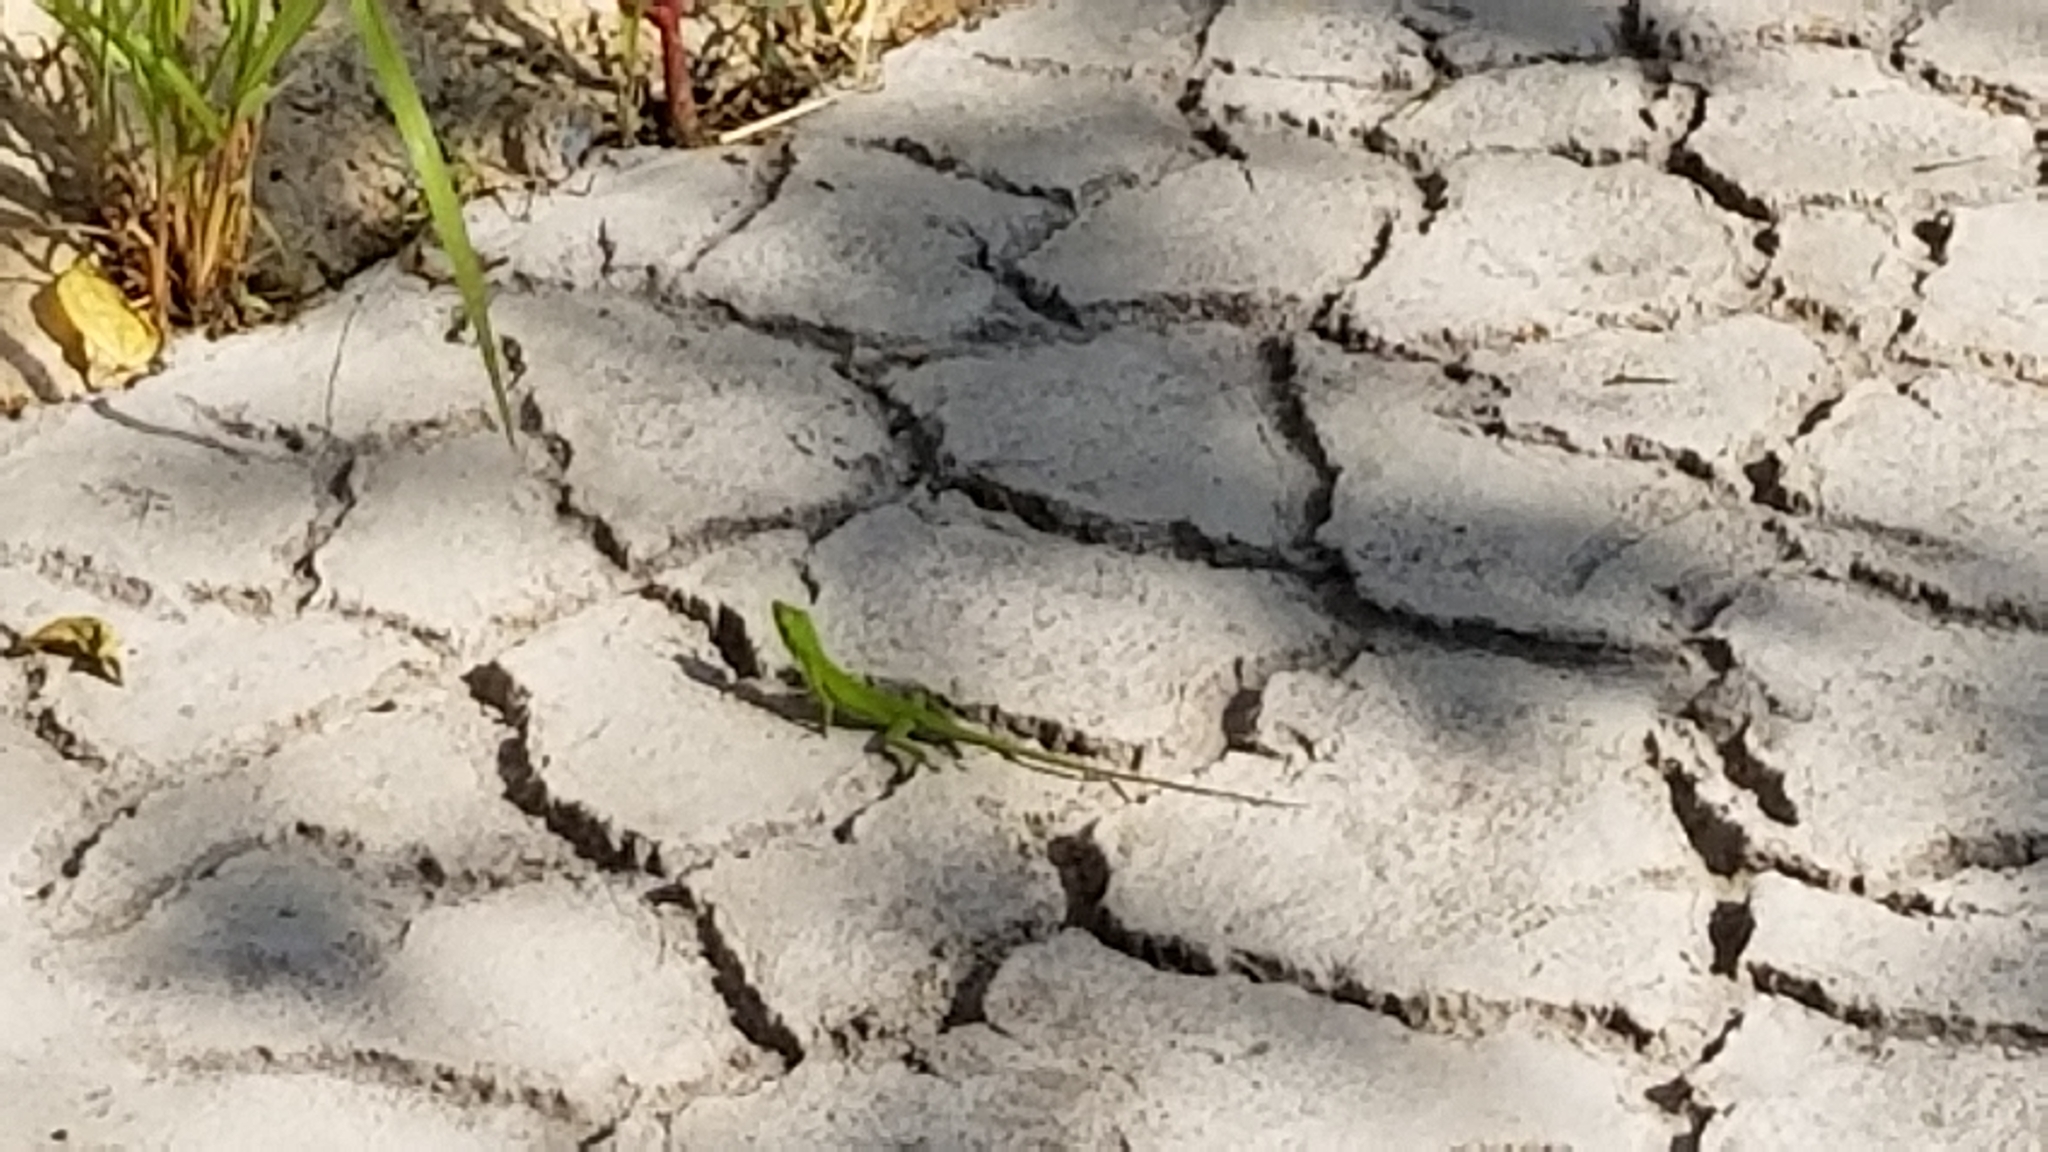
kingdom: Animalia
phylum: Chordata
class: Squamata
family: Dactyloidae
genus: Anolis
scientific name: Anolis carolinensis
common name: Green anole
